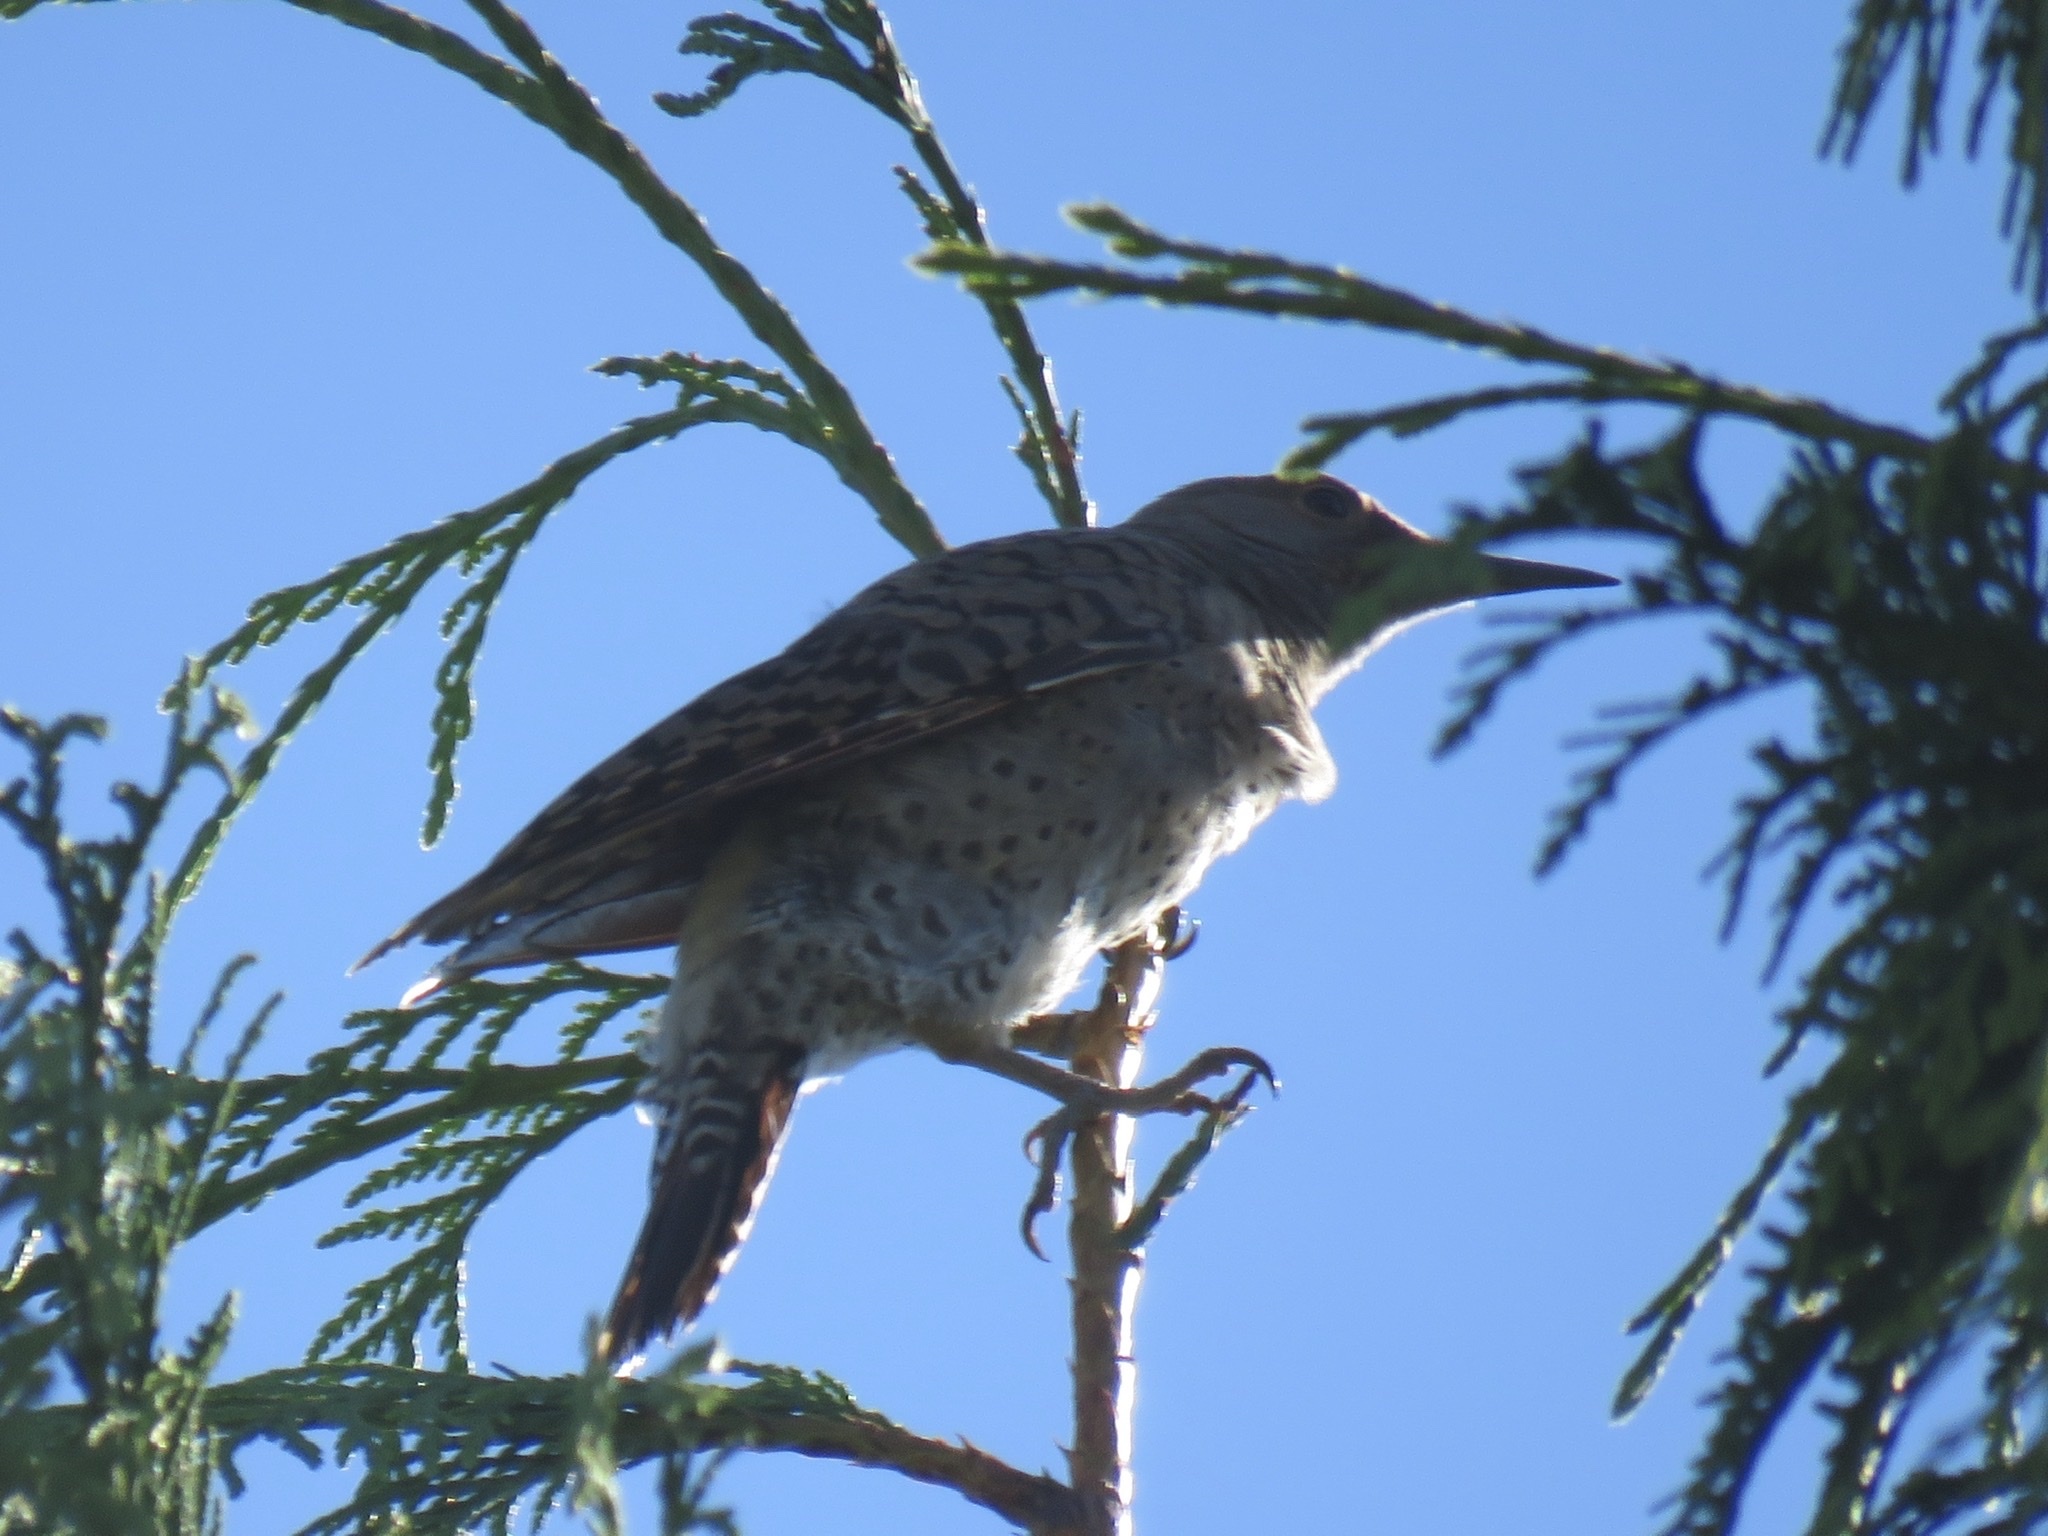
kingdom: Animalia
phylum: Chordata
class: Aves
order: Piciformes
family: Picidae
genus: Colaptes
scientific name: Colaptes auratus
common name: Northern flicker
